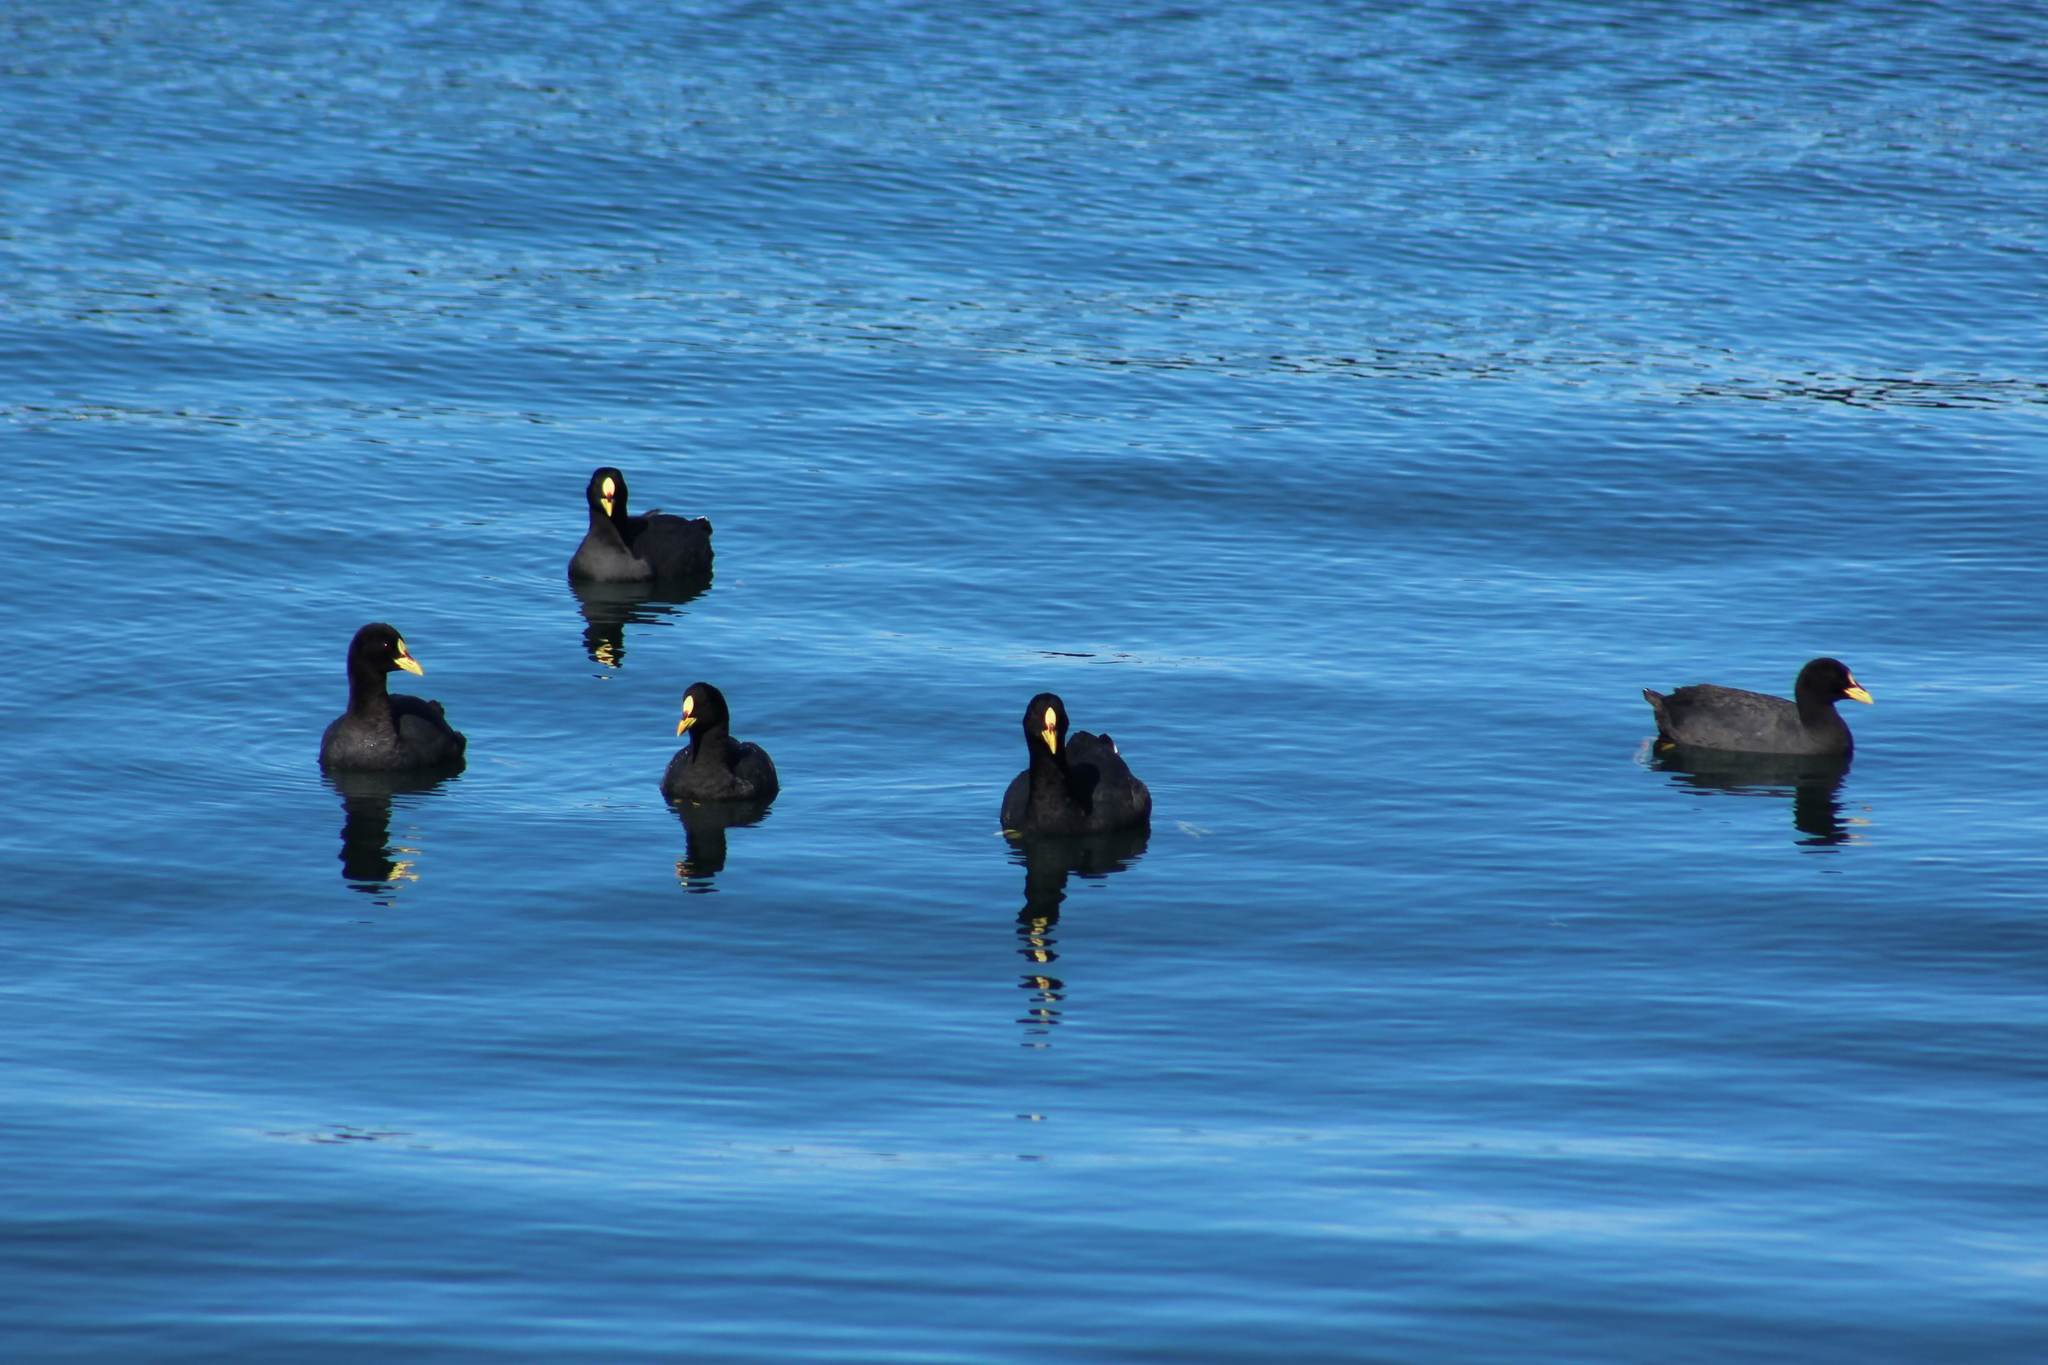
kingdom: Animalia
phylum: Chordata
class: Aves
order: Gruiformes
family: Rallidae
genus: Fulica
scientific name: Fulica armillata
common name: Red-gartered coot
